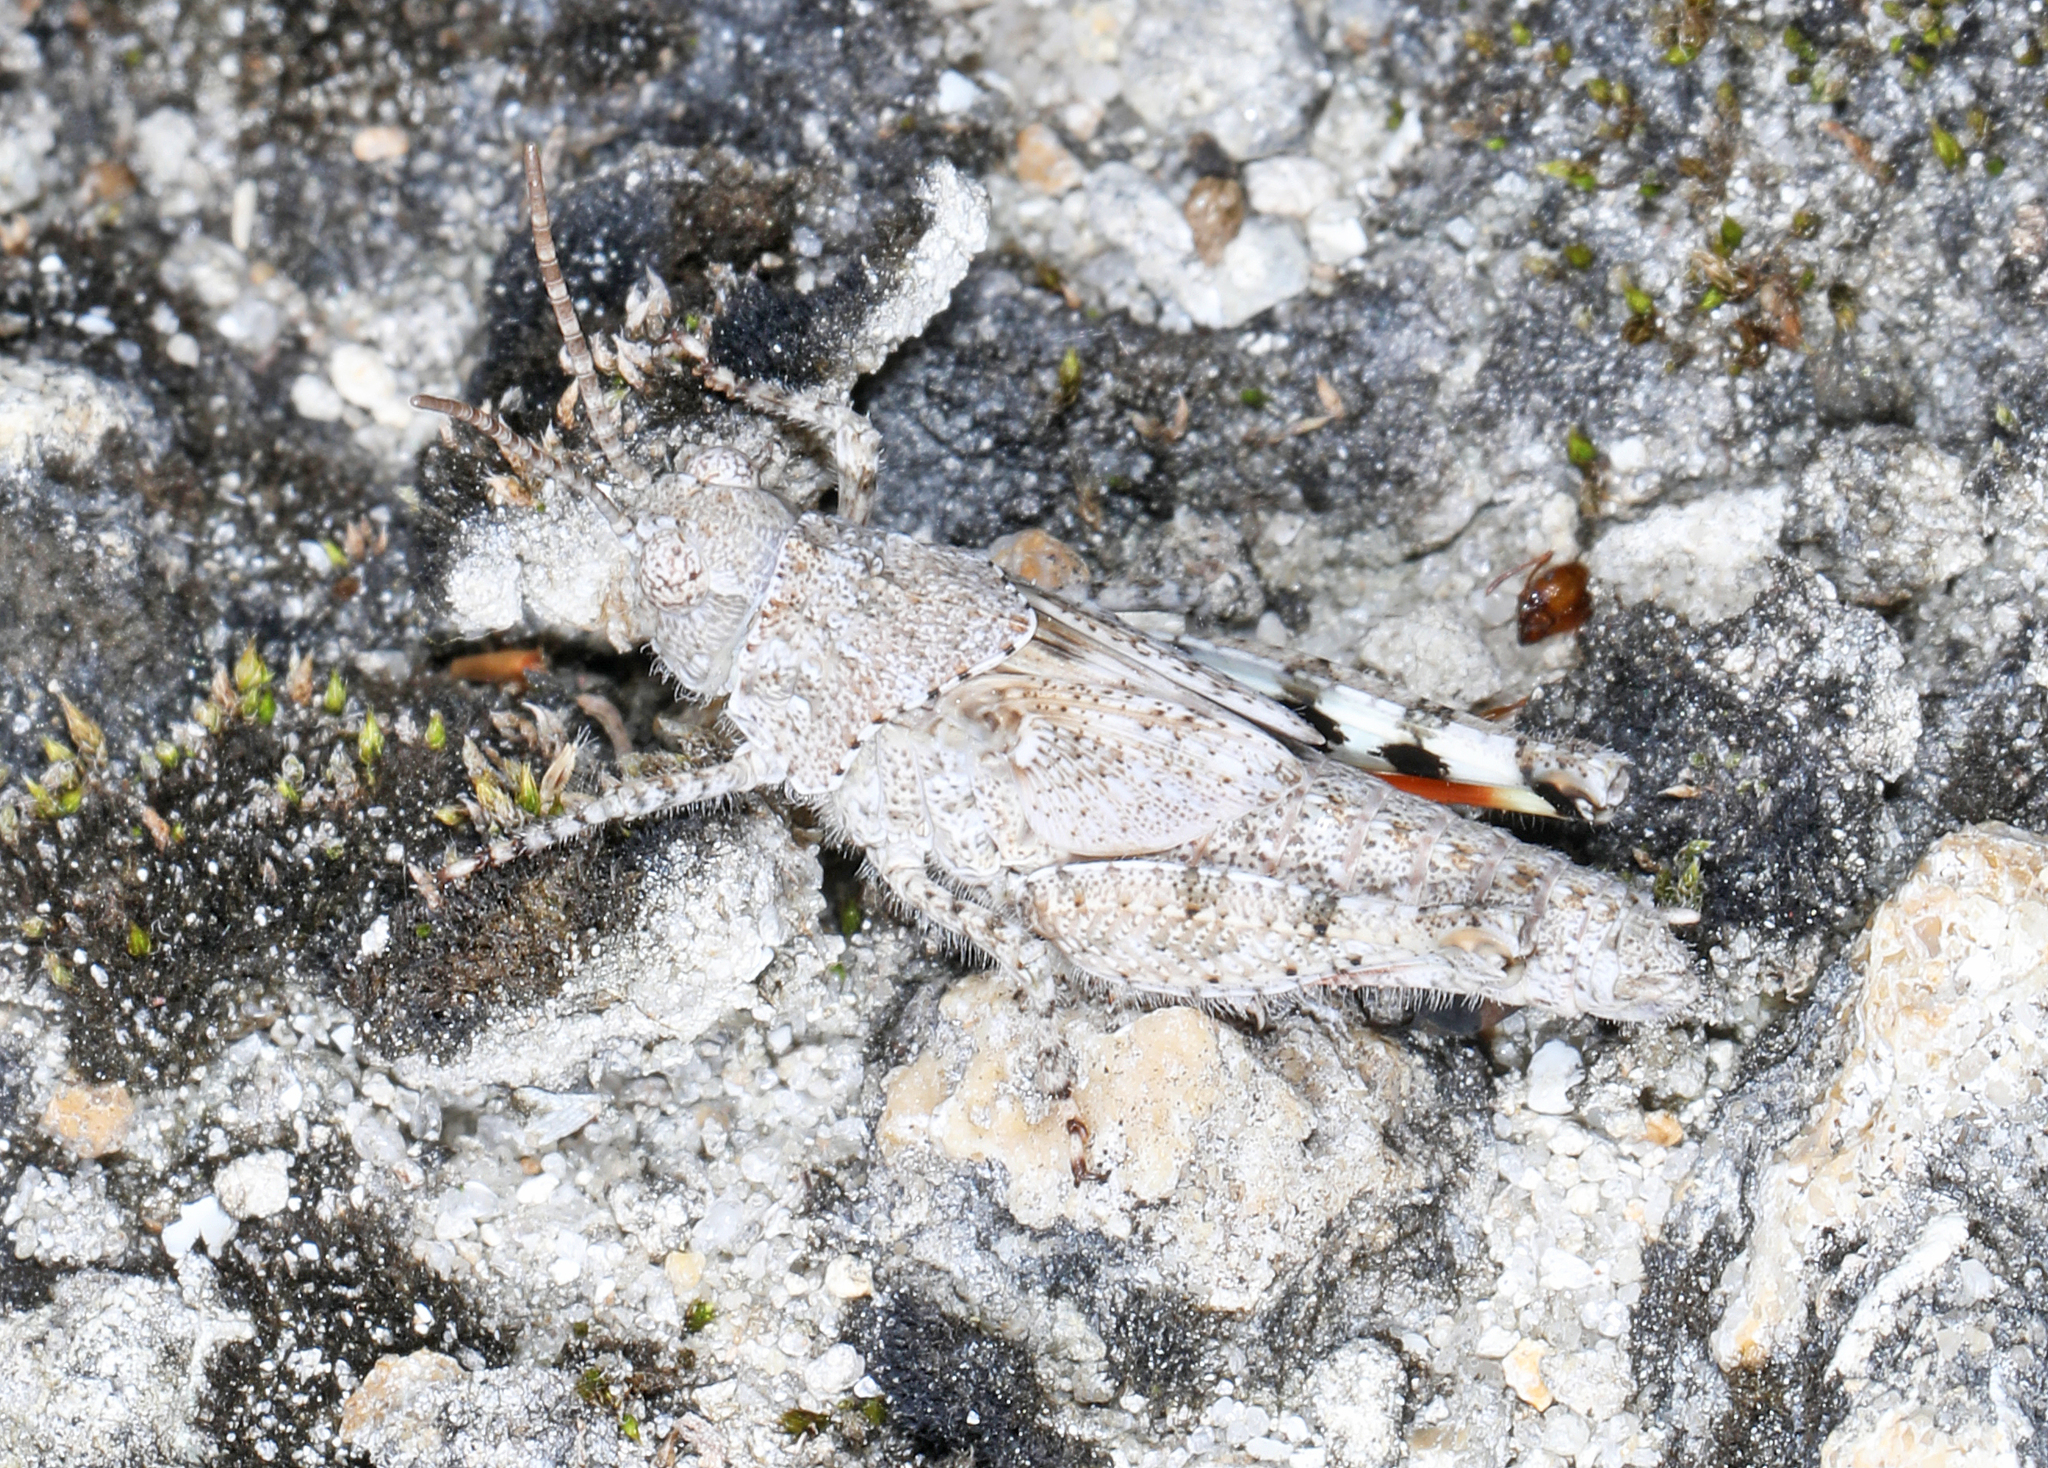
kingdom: Animalia
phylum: Arthropoda
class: Insecta
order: Orthoptera
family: Acrididae
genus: Trimerotropis
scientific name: Trimerotropis maritima
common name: Seaside locust
